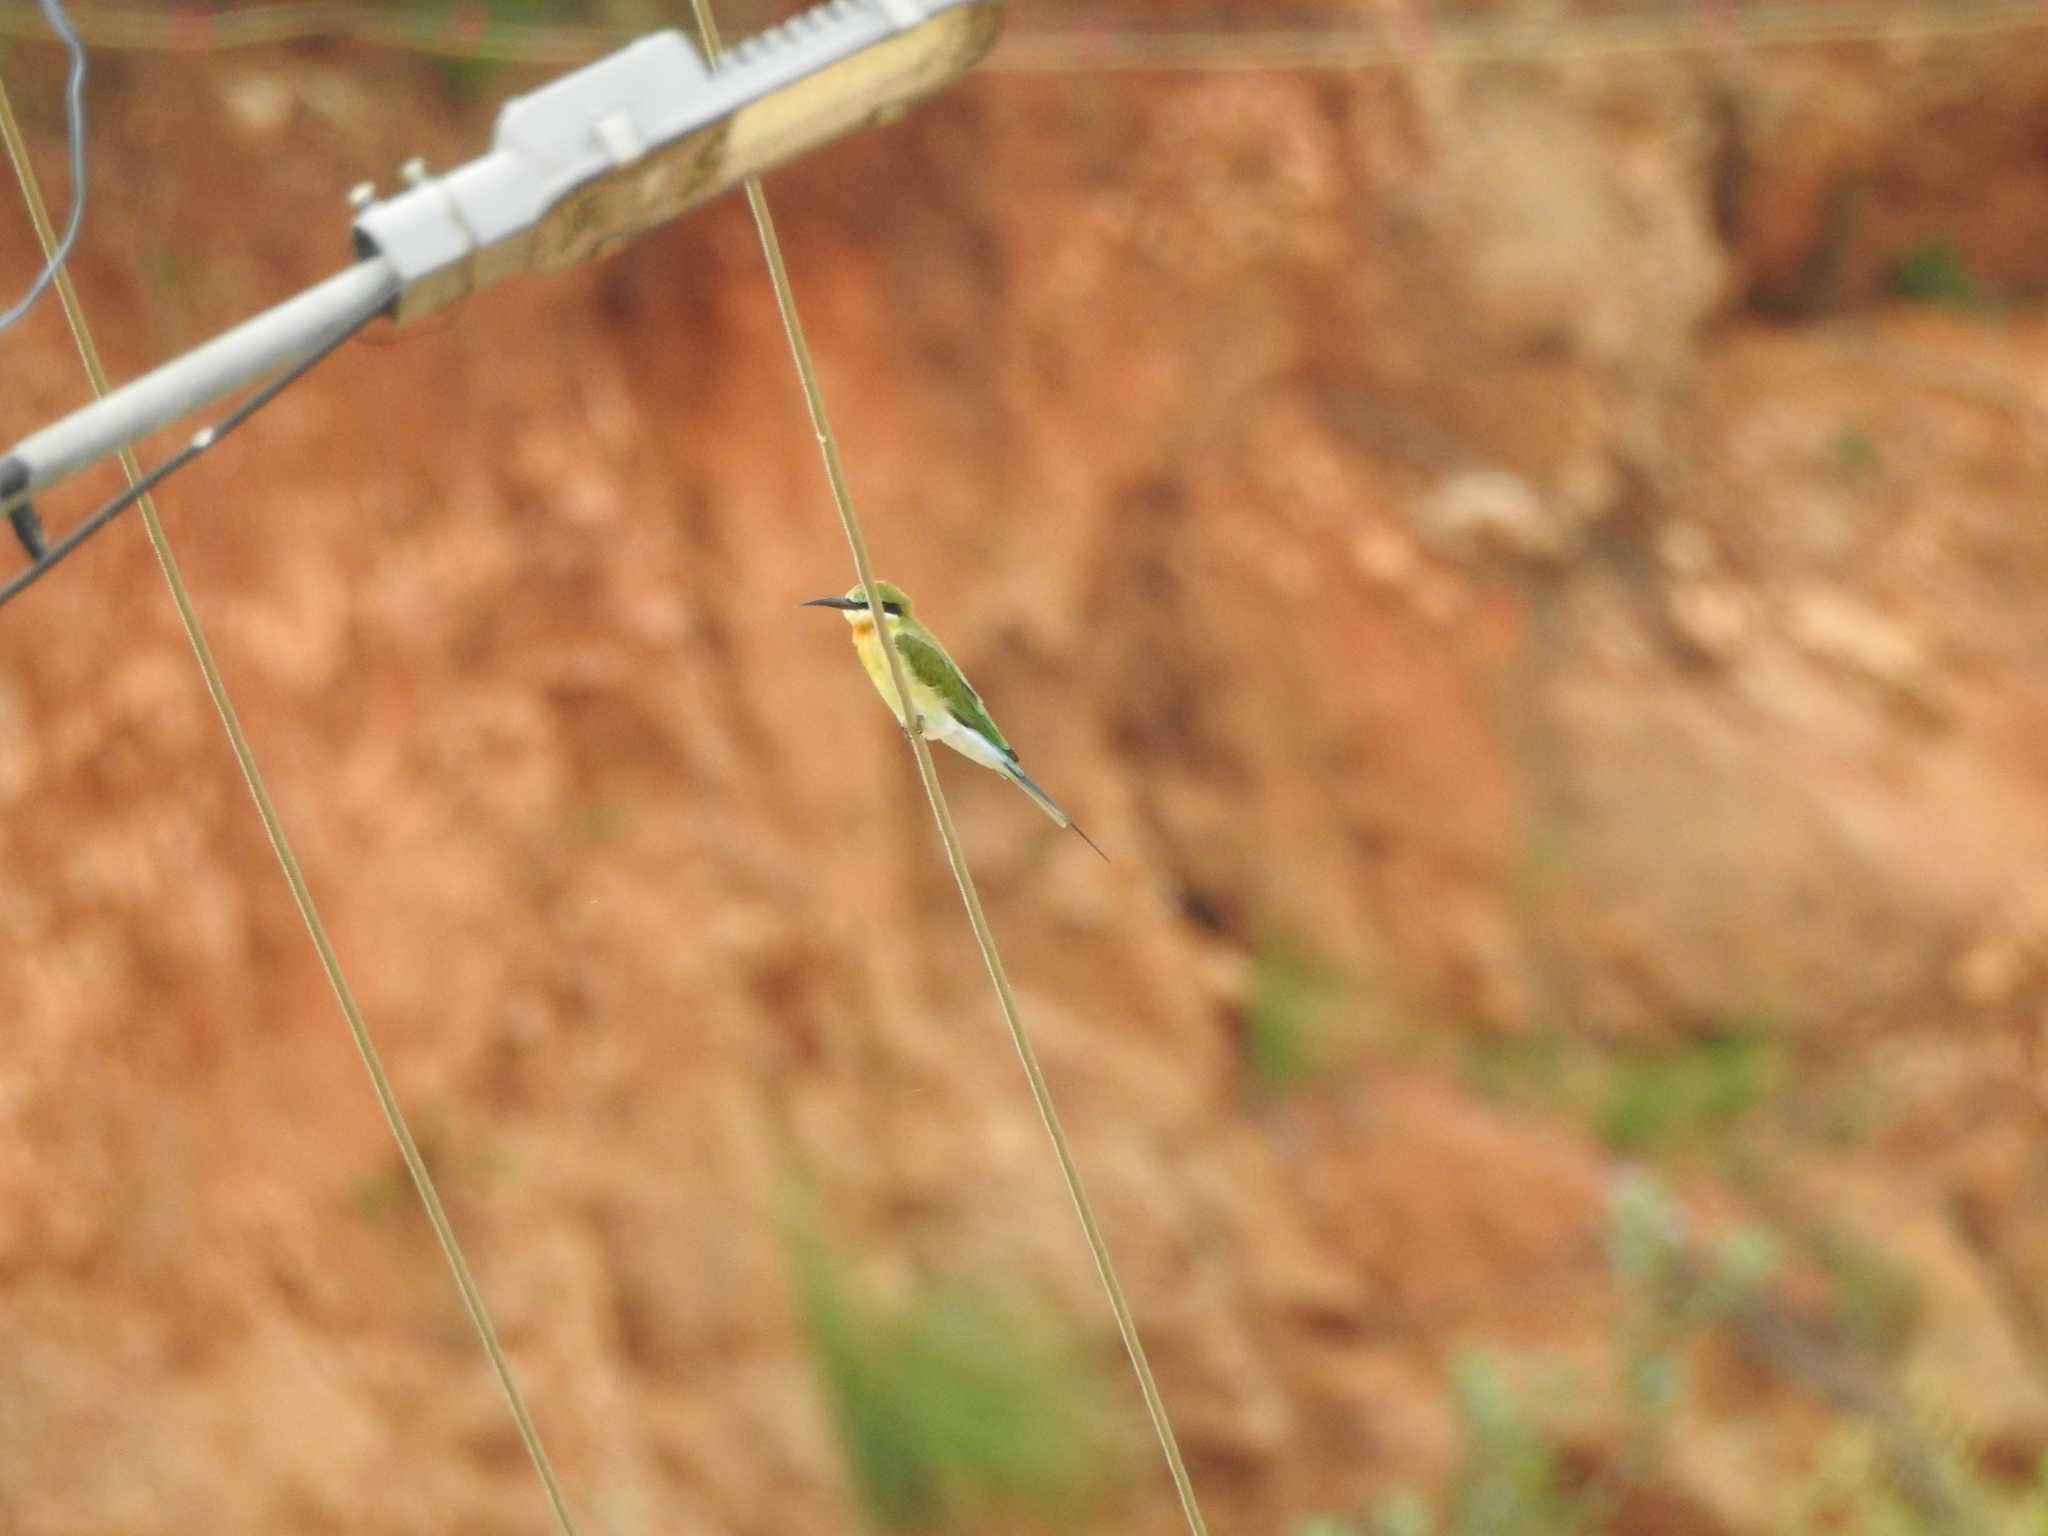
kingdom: Animalia
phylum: Chordata
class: Aves
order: Coraciiformes
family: Meropidae
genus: Merops
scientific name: Merops philippinus
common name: Blue-tailed bee-eater
